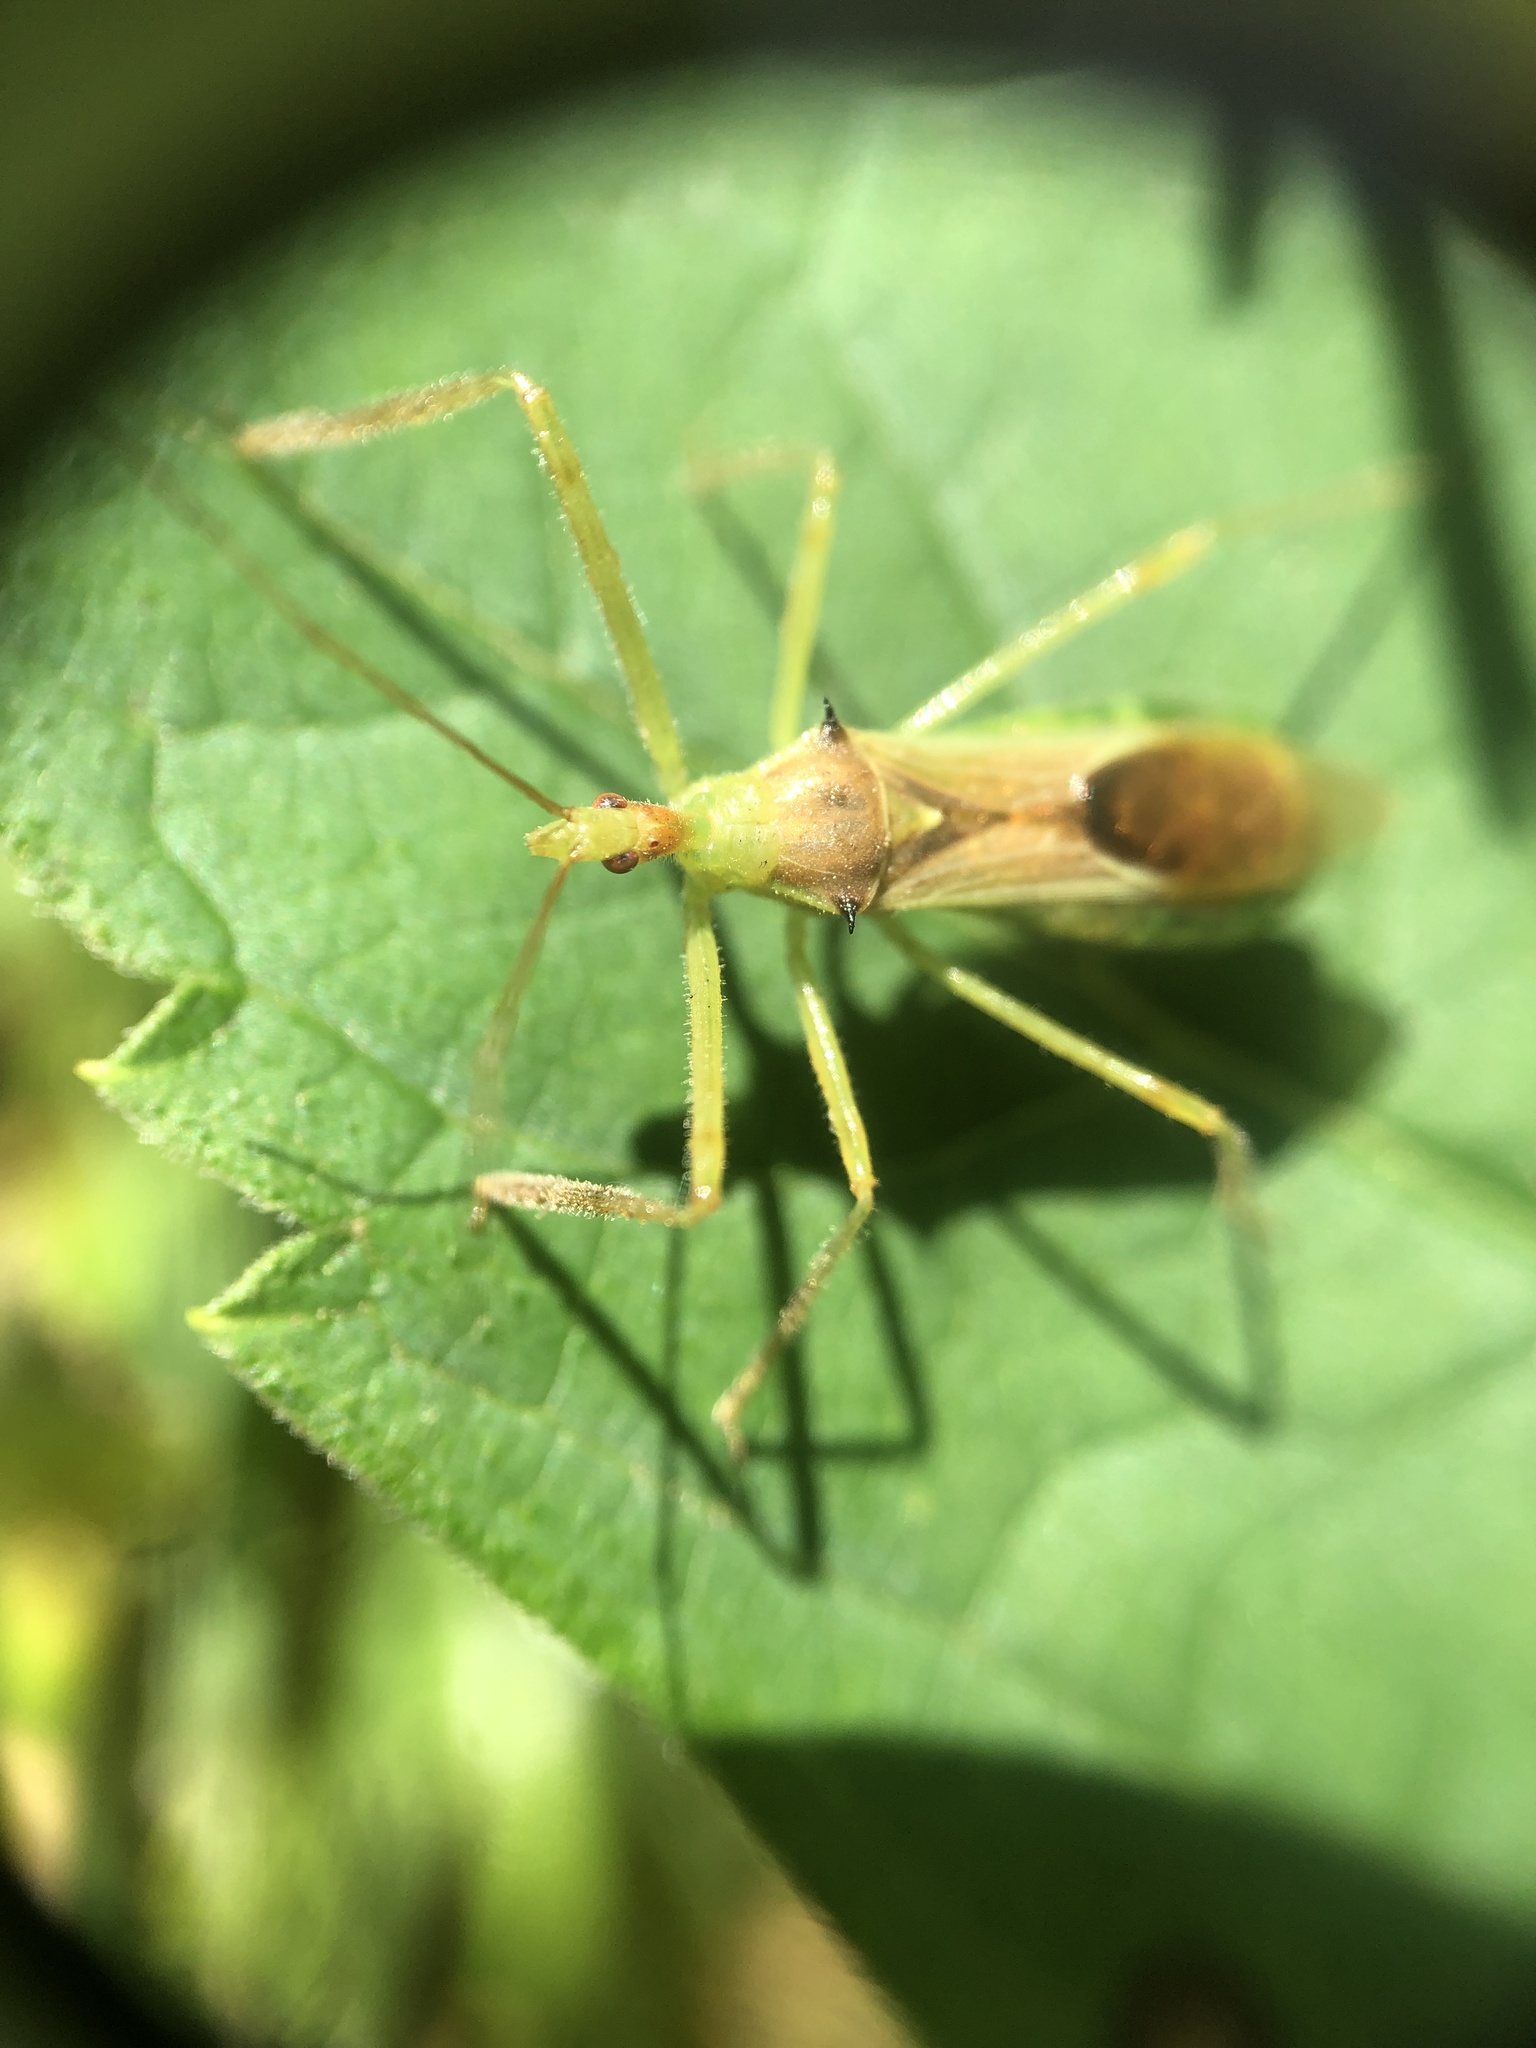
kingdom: Animalia
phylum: Arthropoda
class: Insecta
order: Hemiptera
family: Reduviidae
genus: Zelus
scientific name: Zelus luridus
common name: Pale green assassin bug
